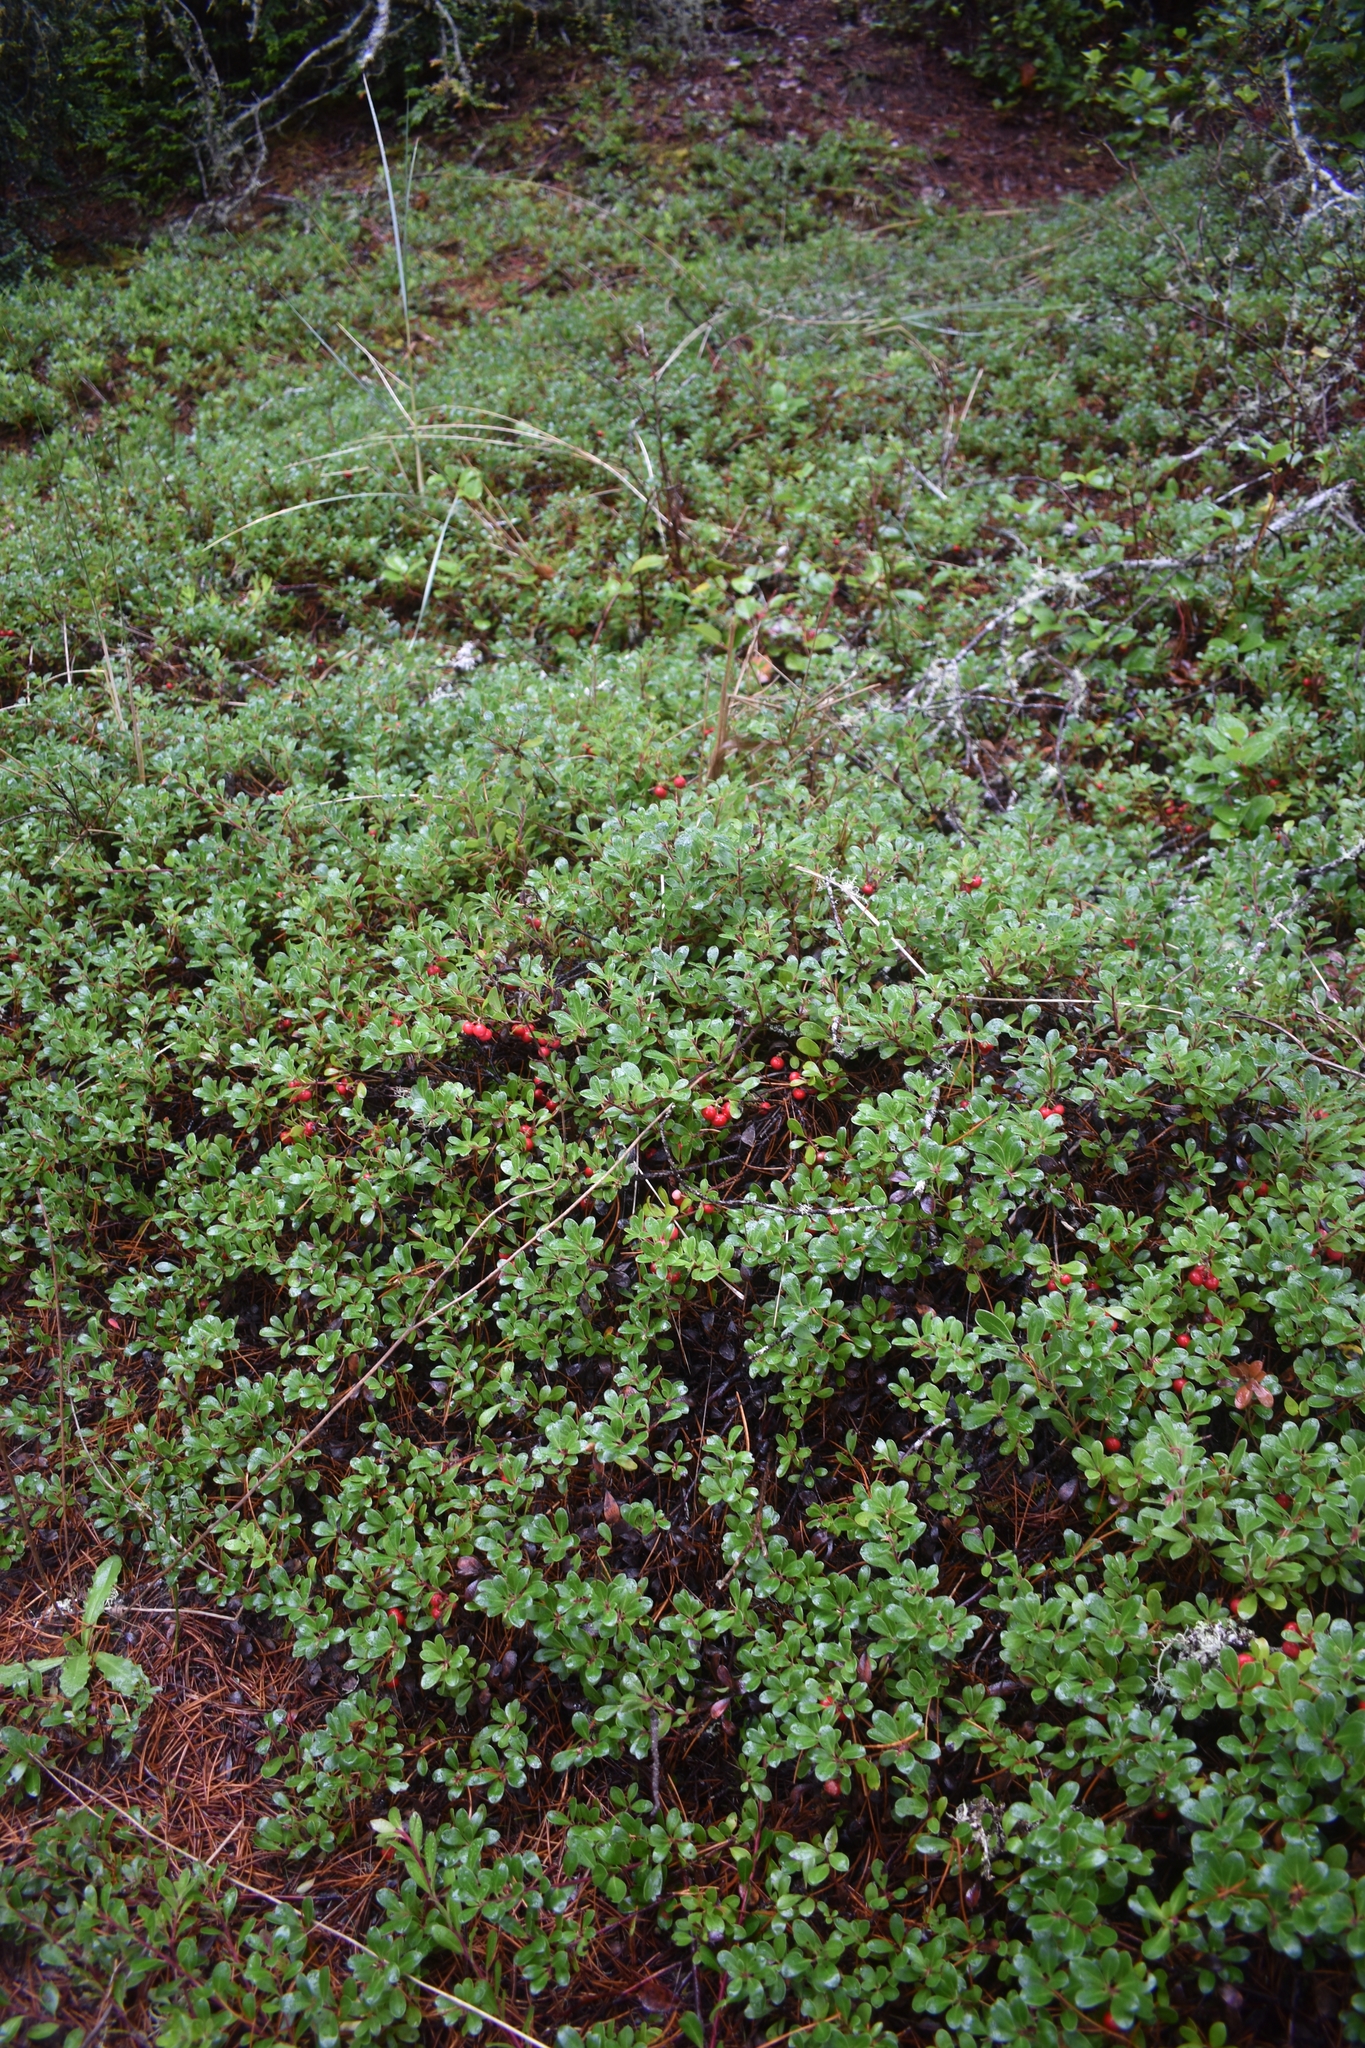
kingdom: Plantae
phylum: Tracheophyta
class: Magnoliopsida
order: Ericales
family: Ericaceae
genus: Arctostaphylos
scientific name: Arctostaphylos uva-ursi
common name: Bearberry
